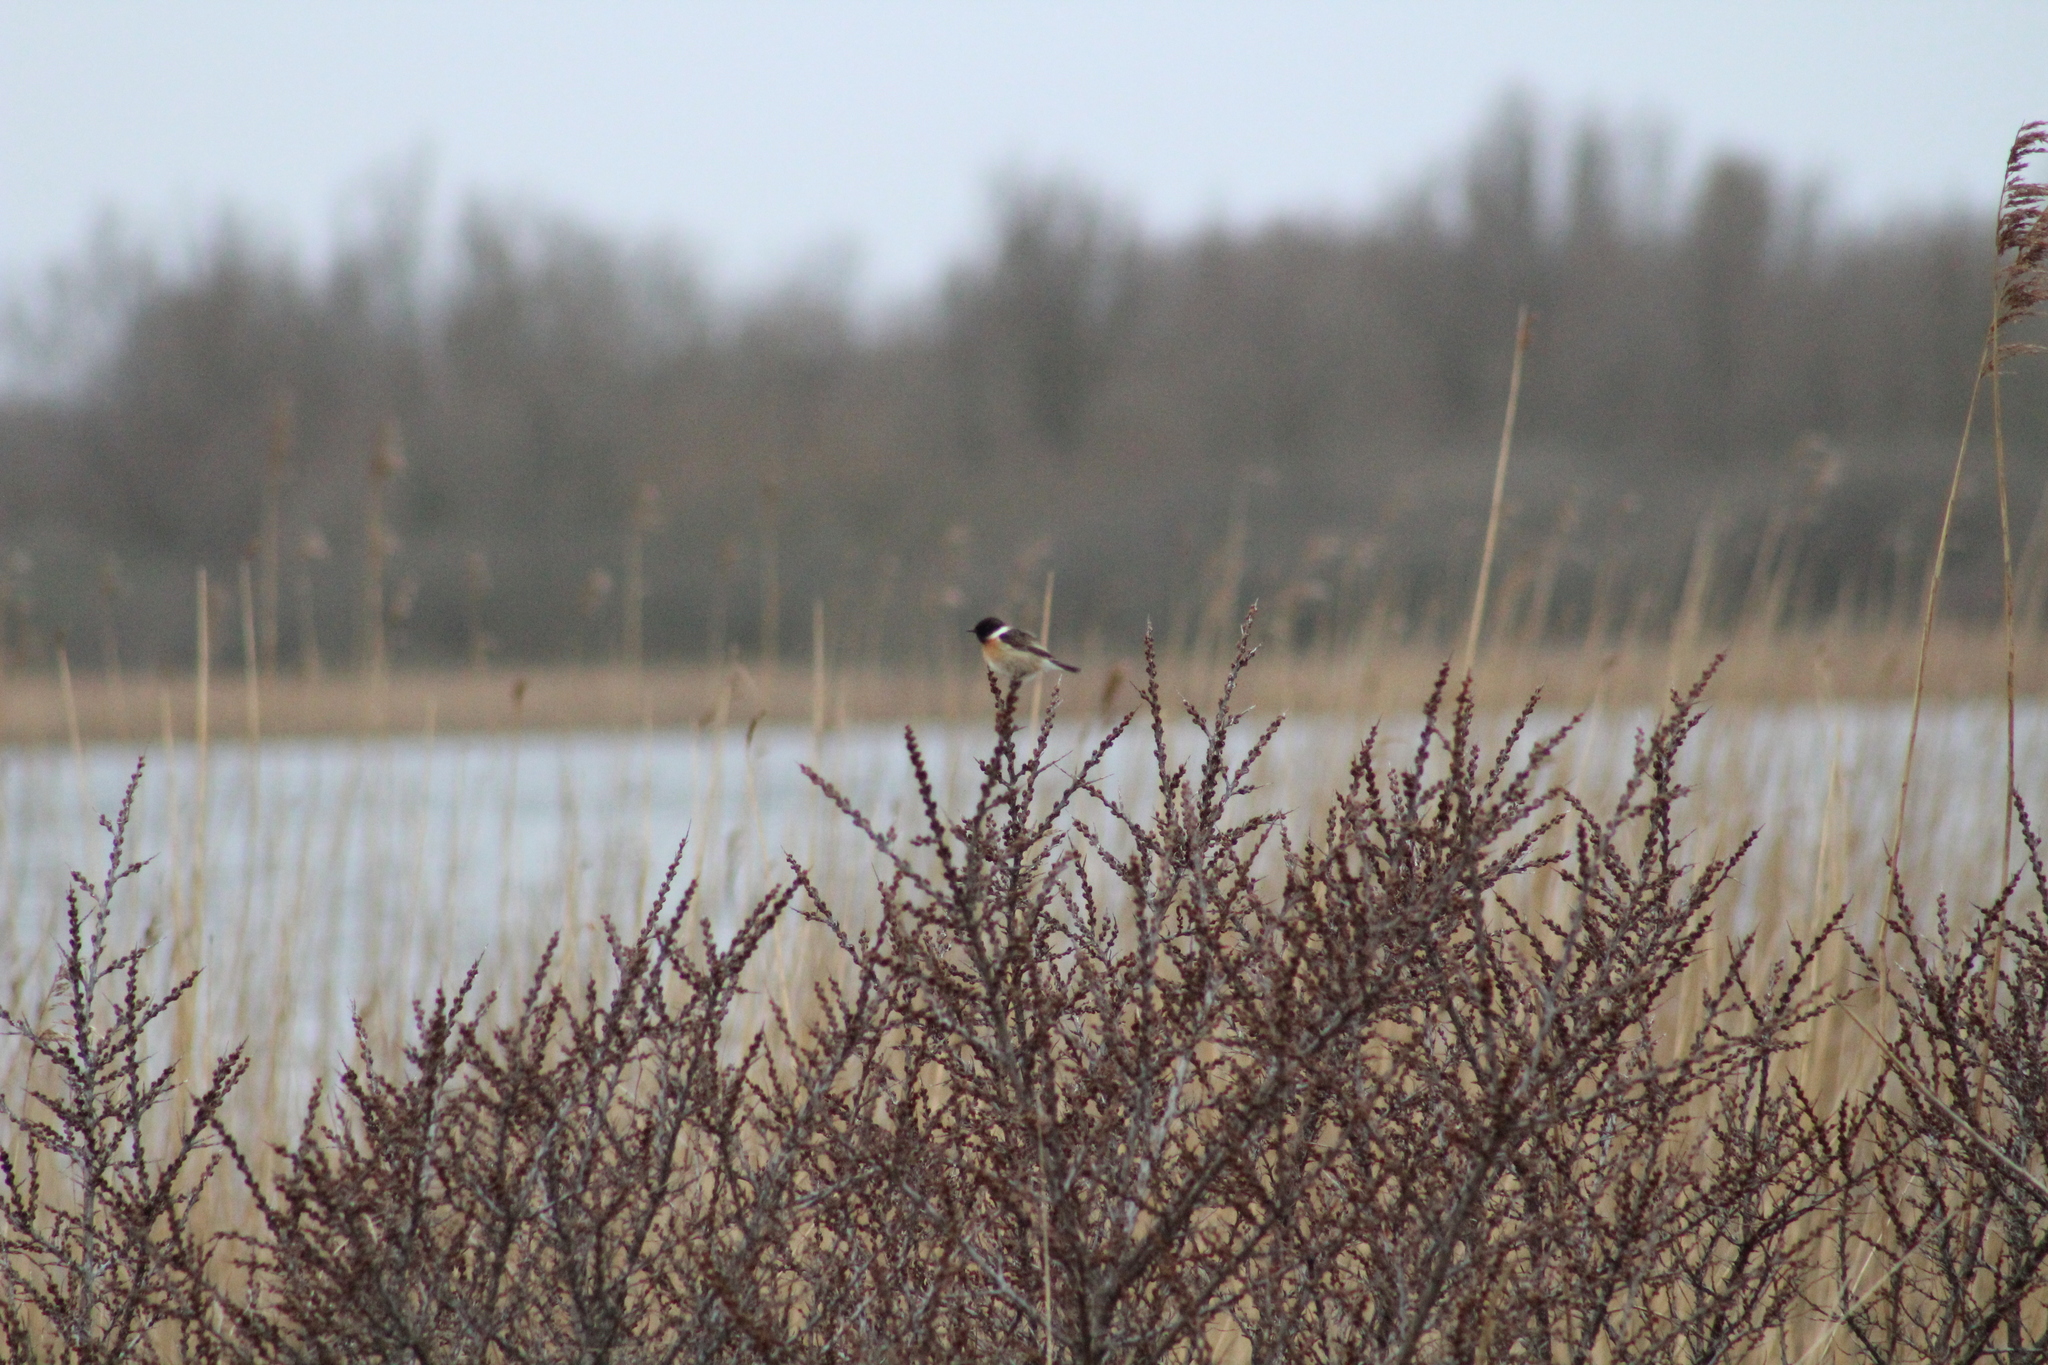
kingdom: Animalia
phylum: Chordata
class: Aves
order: Passeriformes
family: Muscicapidae
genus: Saxicola
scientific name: Saxicola rubicola
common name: European stonechat
